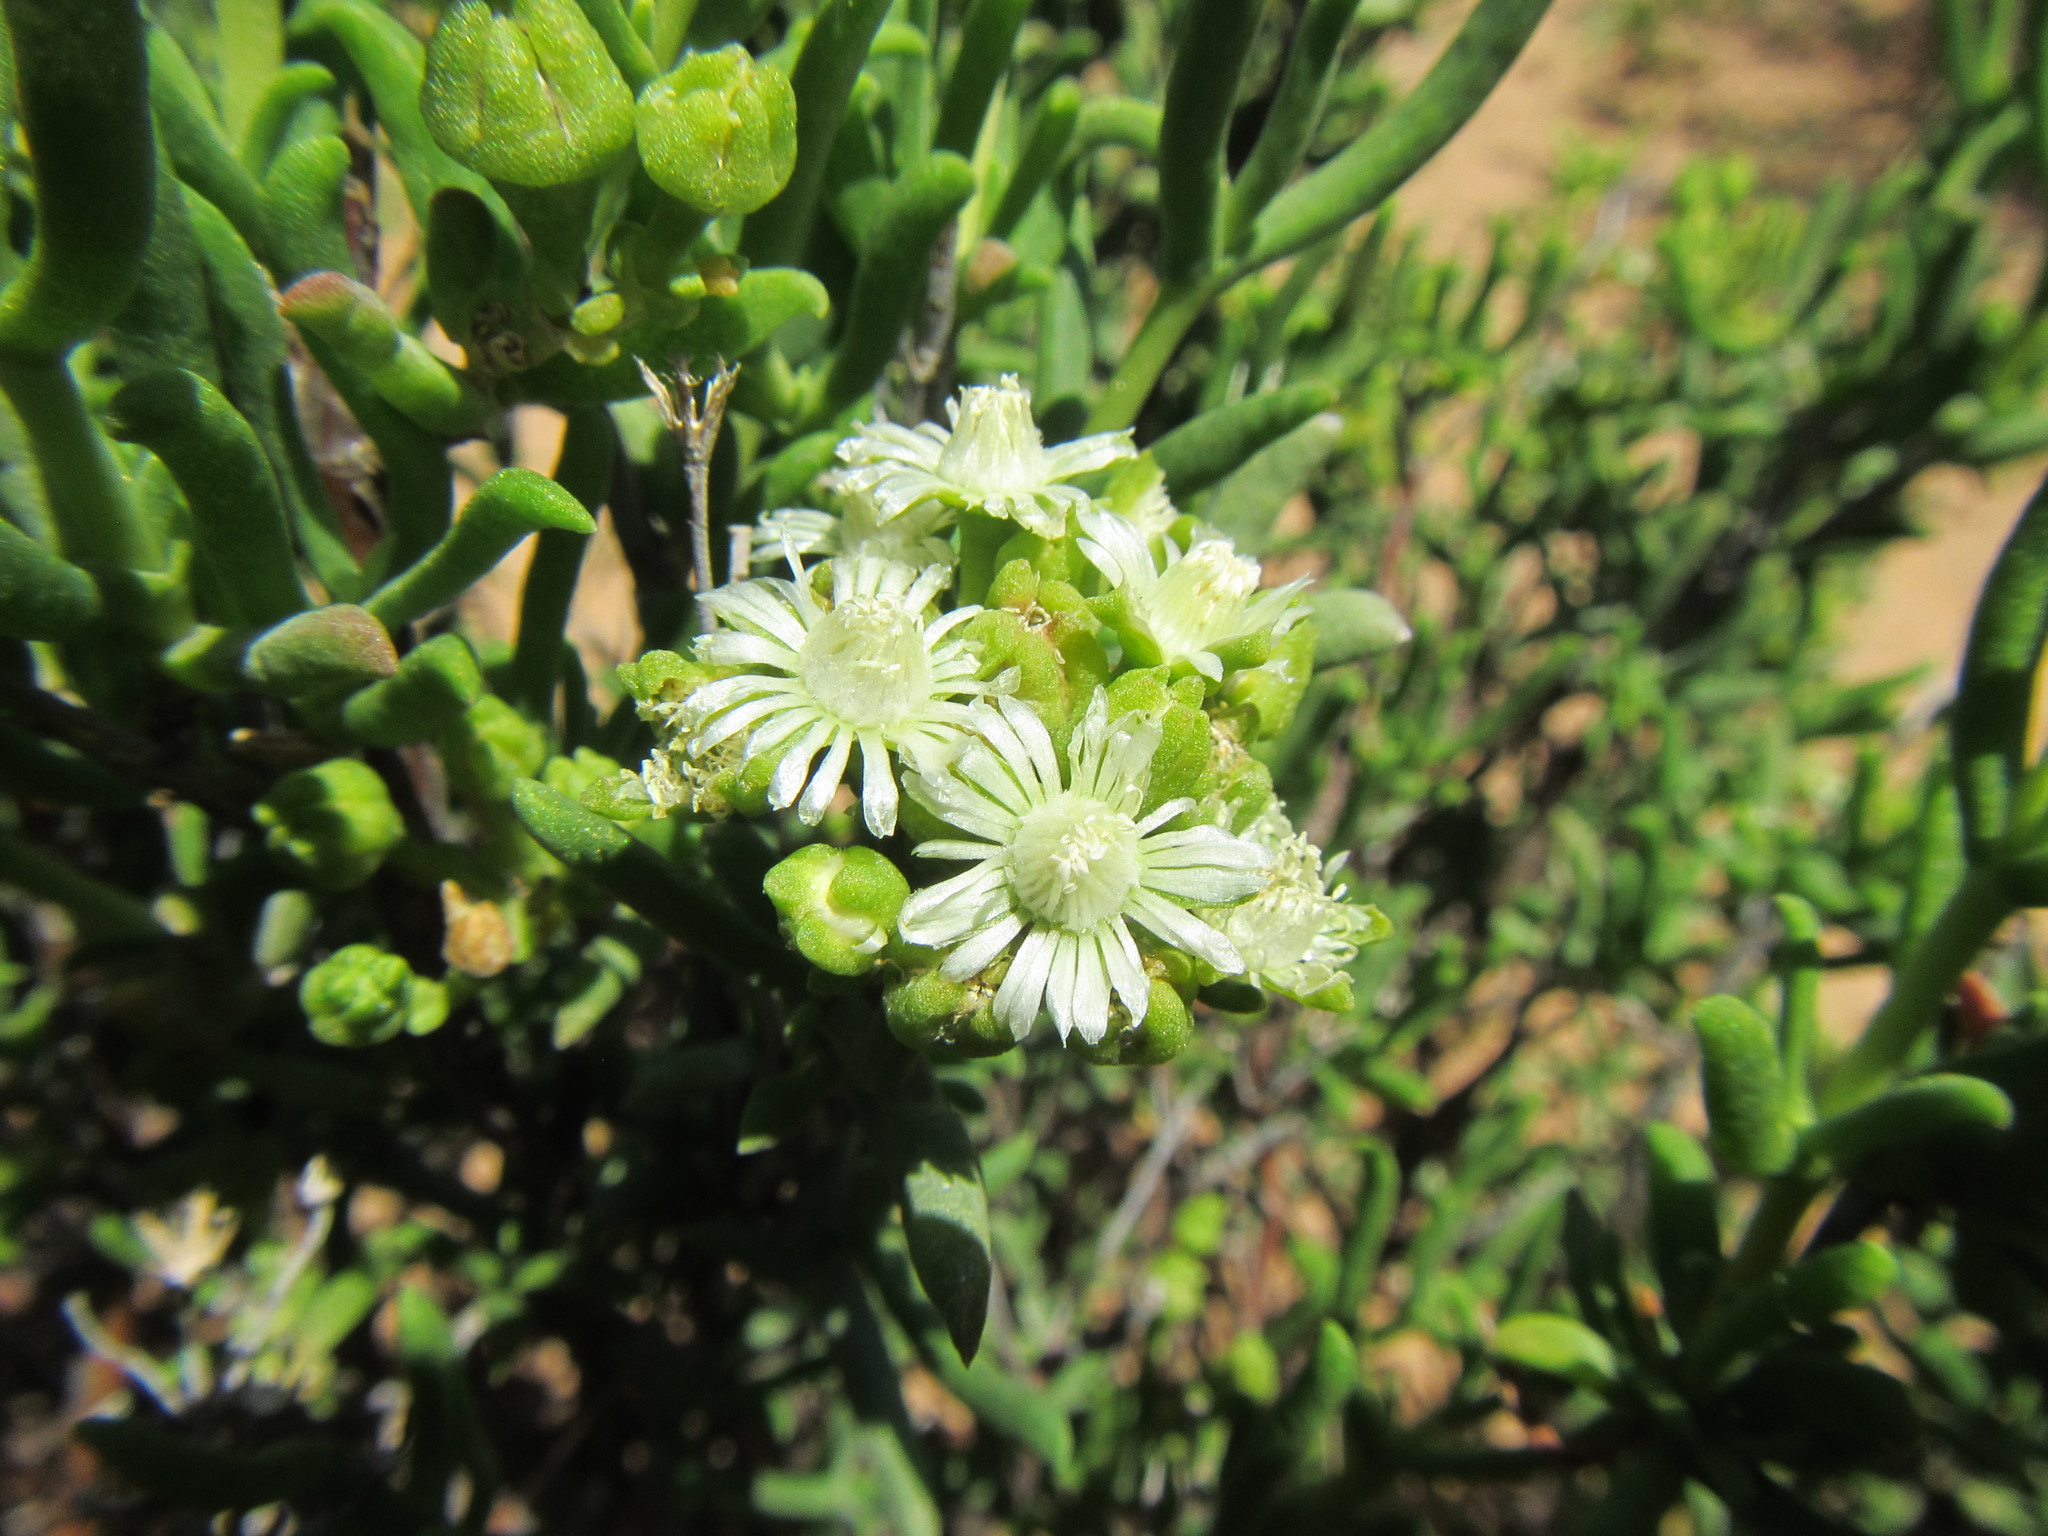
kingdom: Plantae
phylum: Tracheophyta
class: Magnoliopsida
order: Caryophyllales
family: Aizoaceae
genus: Delosperma
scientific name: Delosperma frutescens
